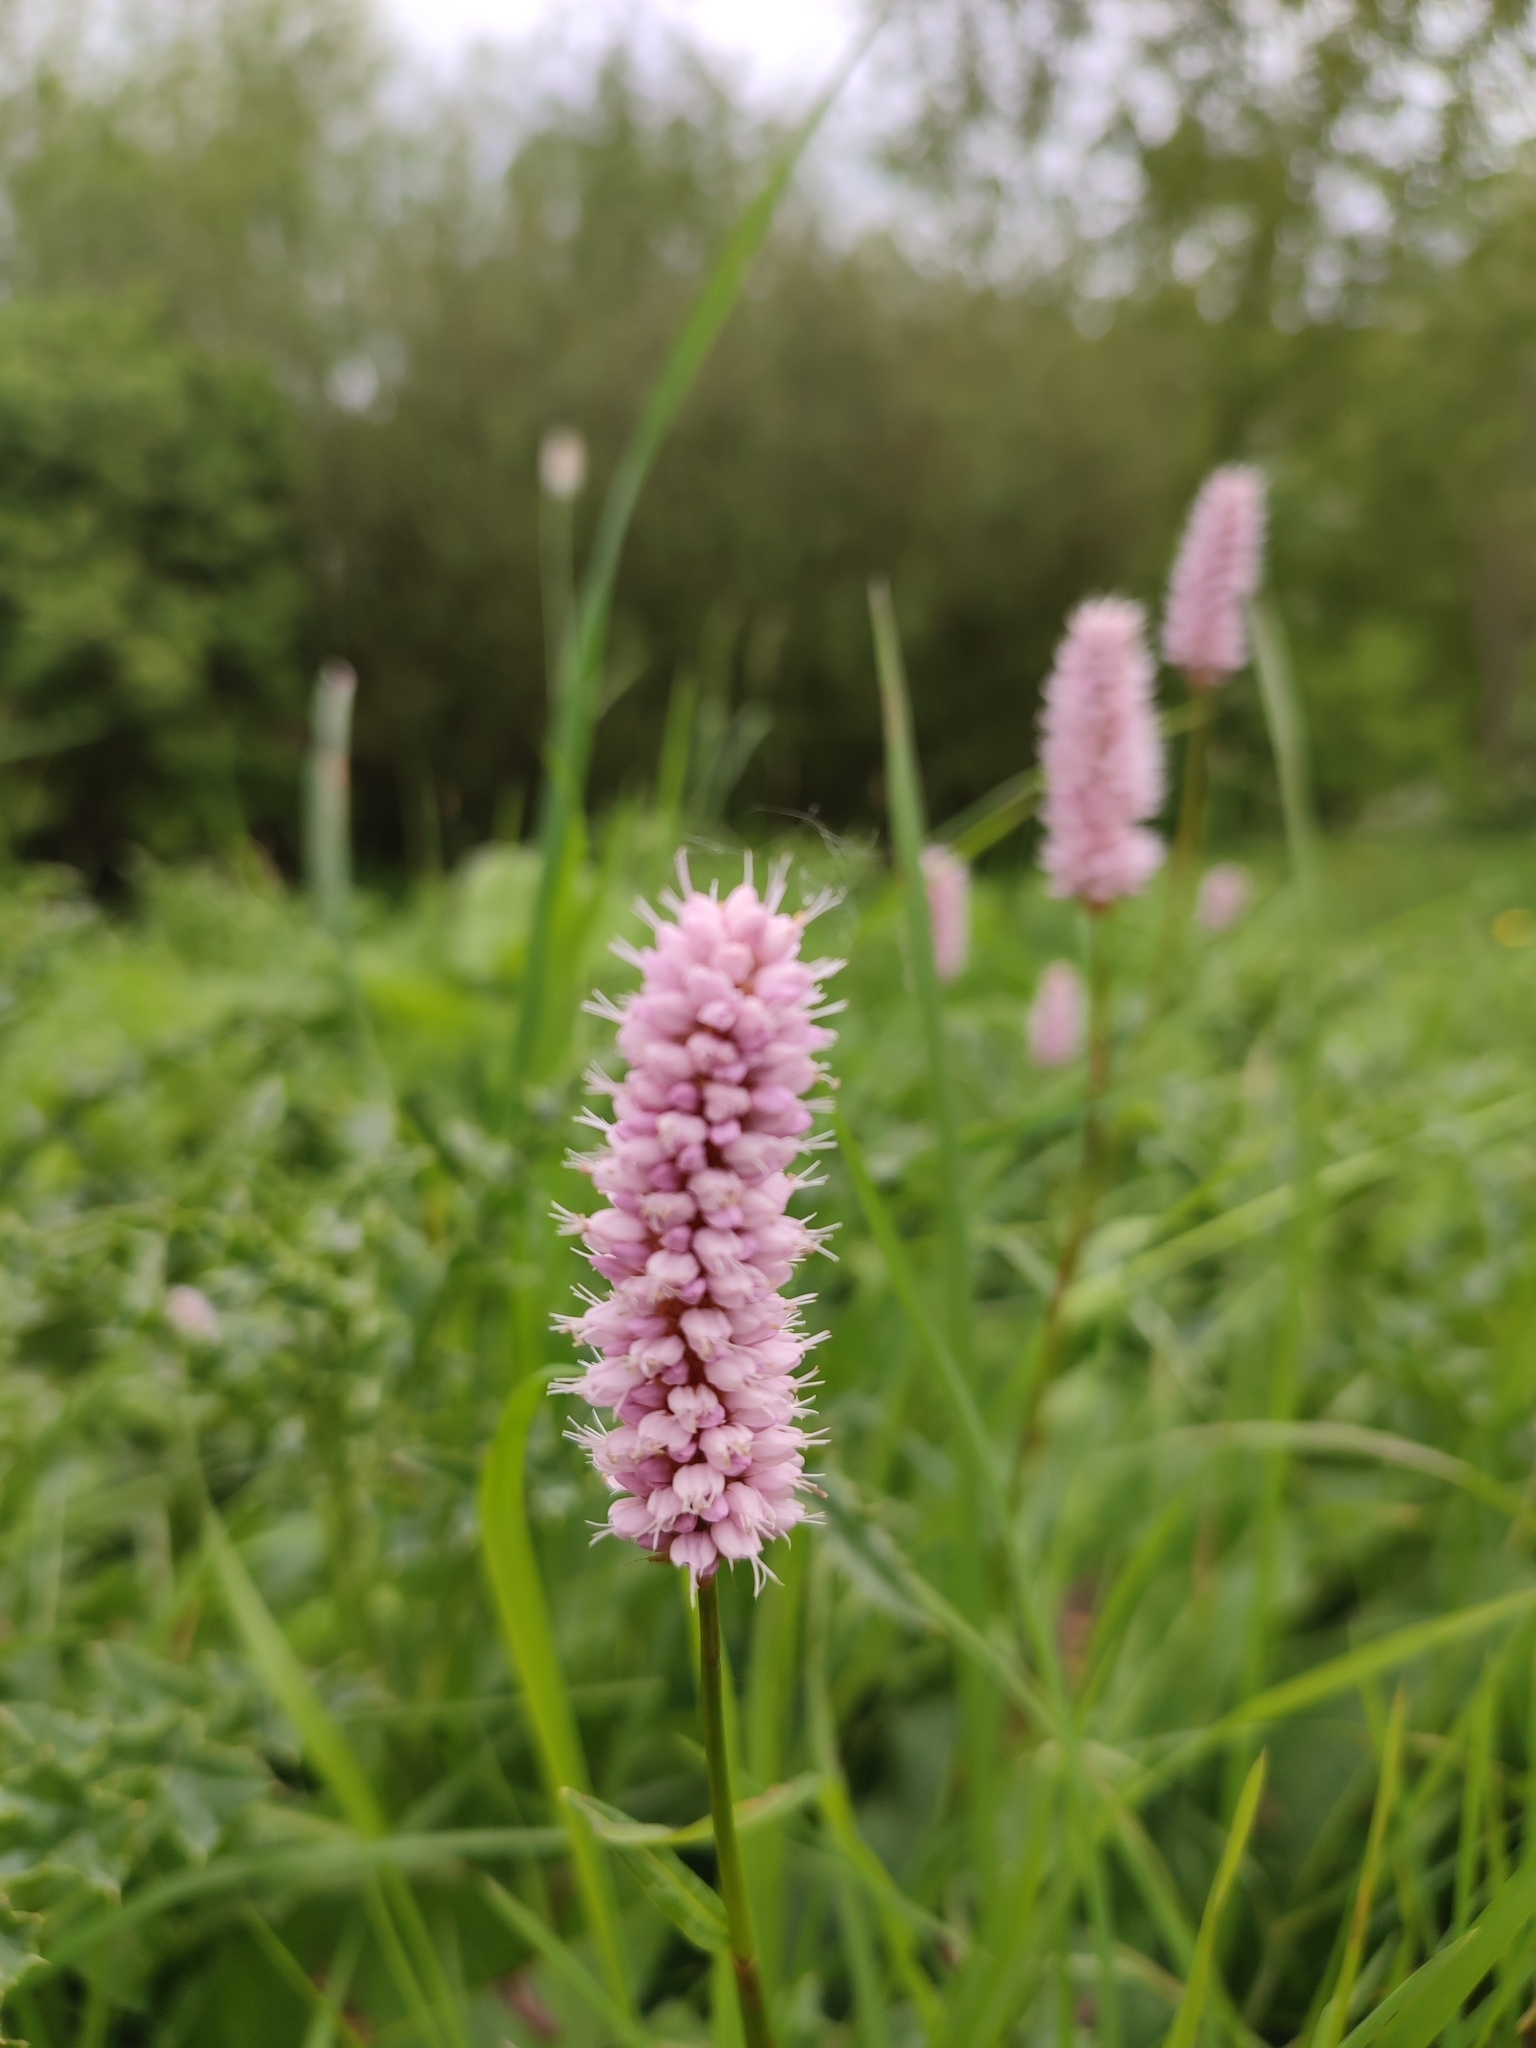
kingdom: Plantae
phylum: Tracheophyta
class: Magnoliopsida
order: Caryophyllales
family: Polygonaceae
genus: Bistorta
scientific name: Bistorta officinalis
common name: Common bistort
